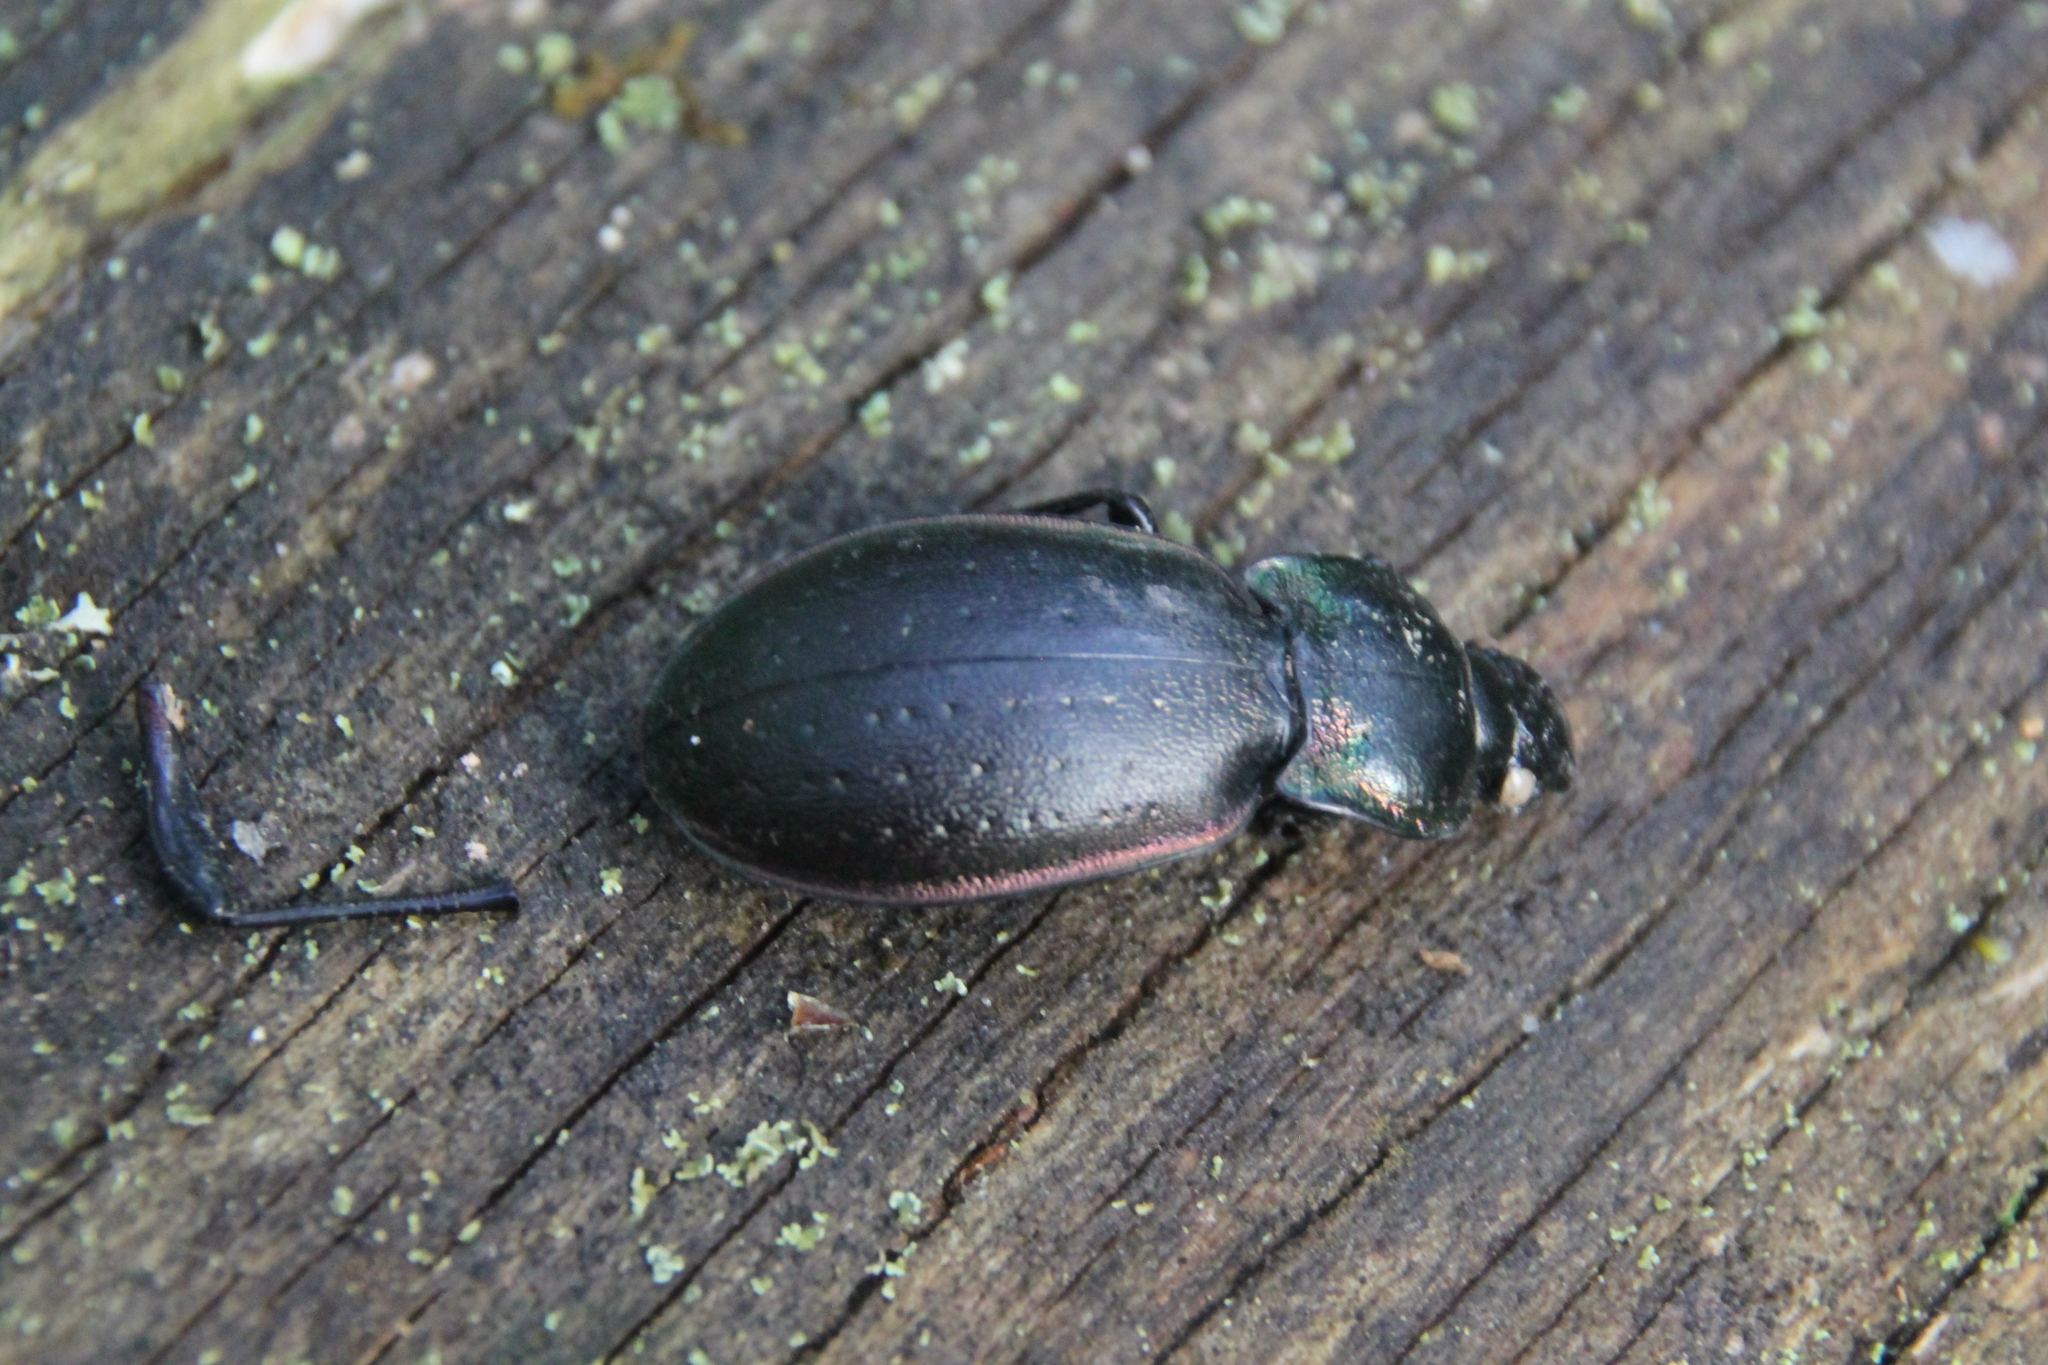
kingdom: Animalia
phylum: Arthropoda
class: Insecta
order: Coleoptera
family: Carabidae
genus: Carabus
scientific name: Carabus nemoralis
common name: European ground beetle
